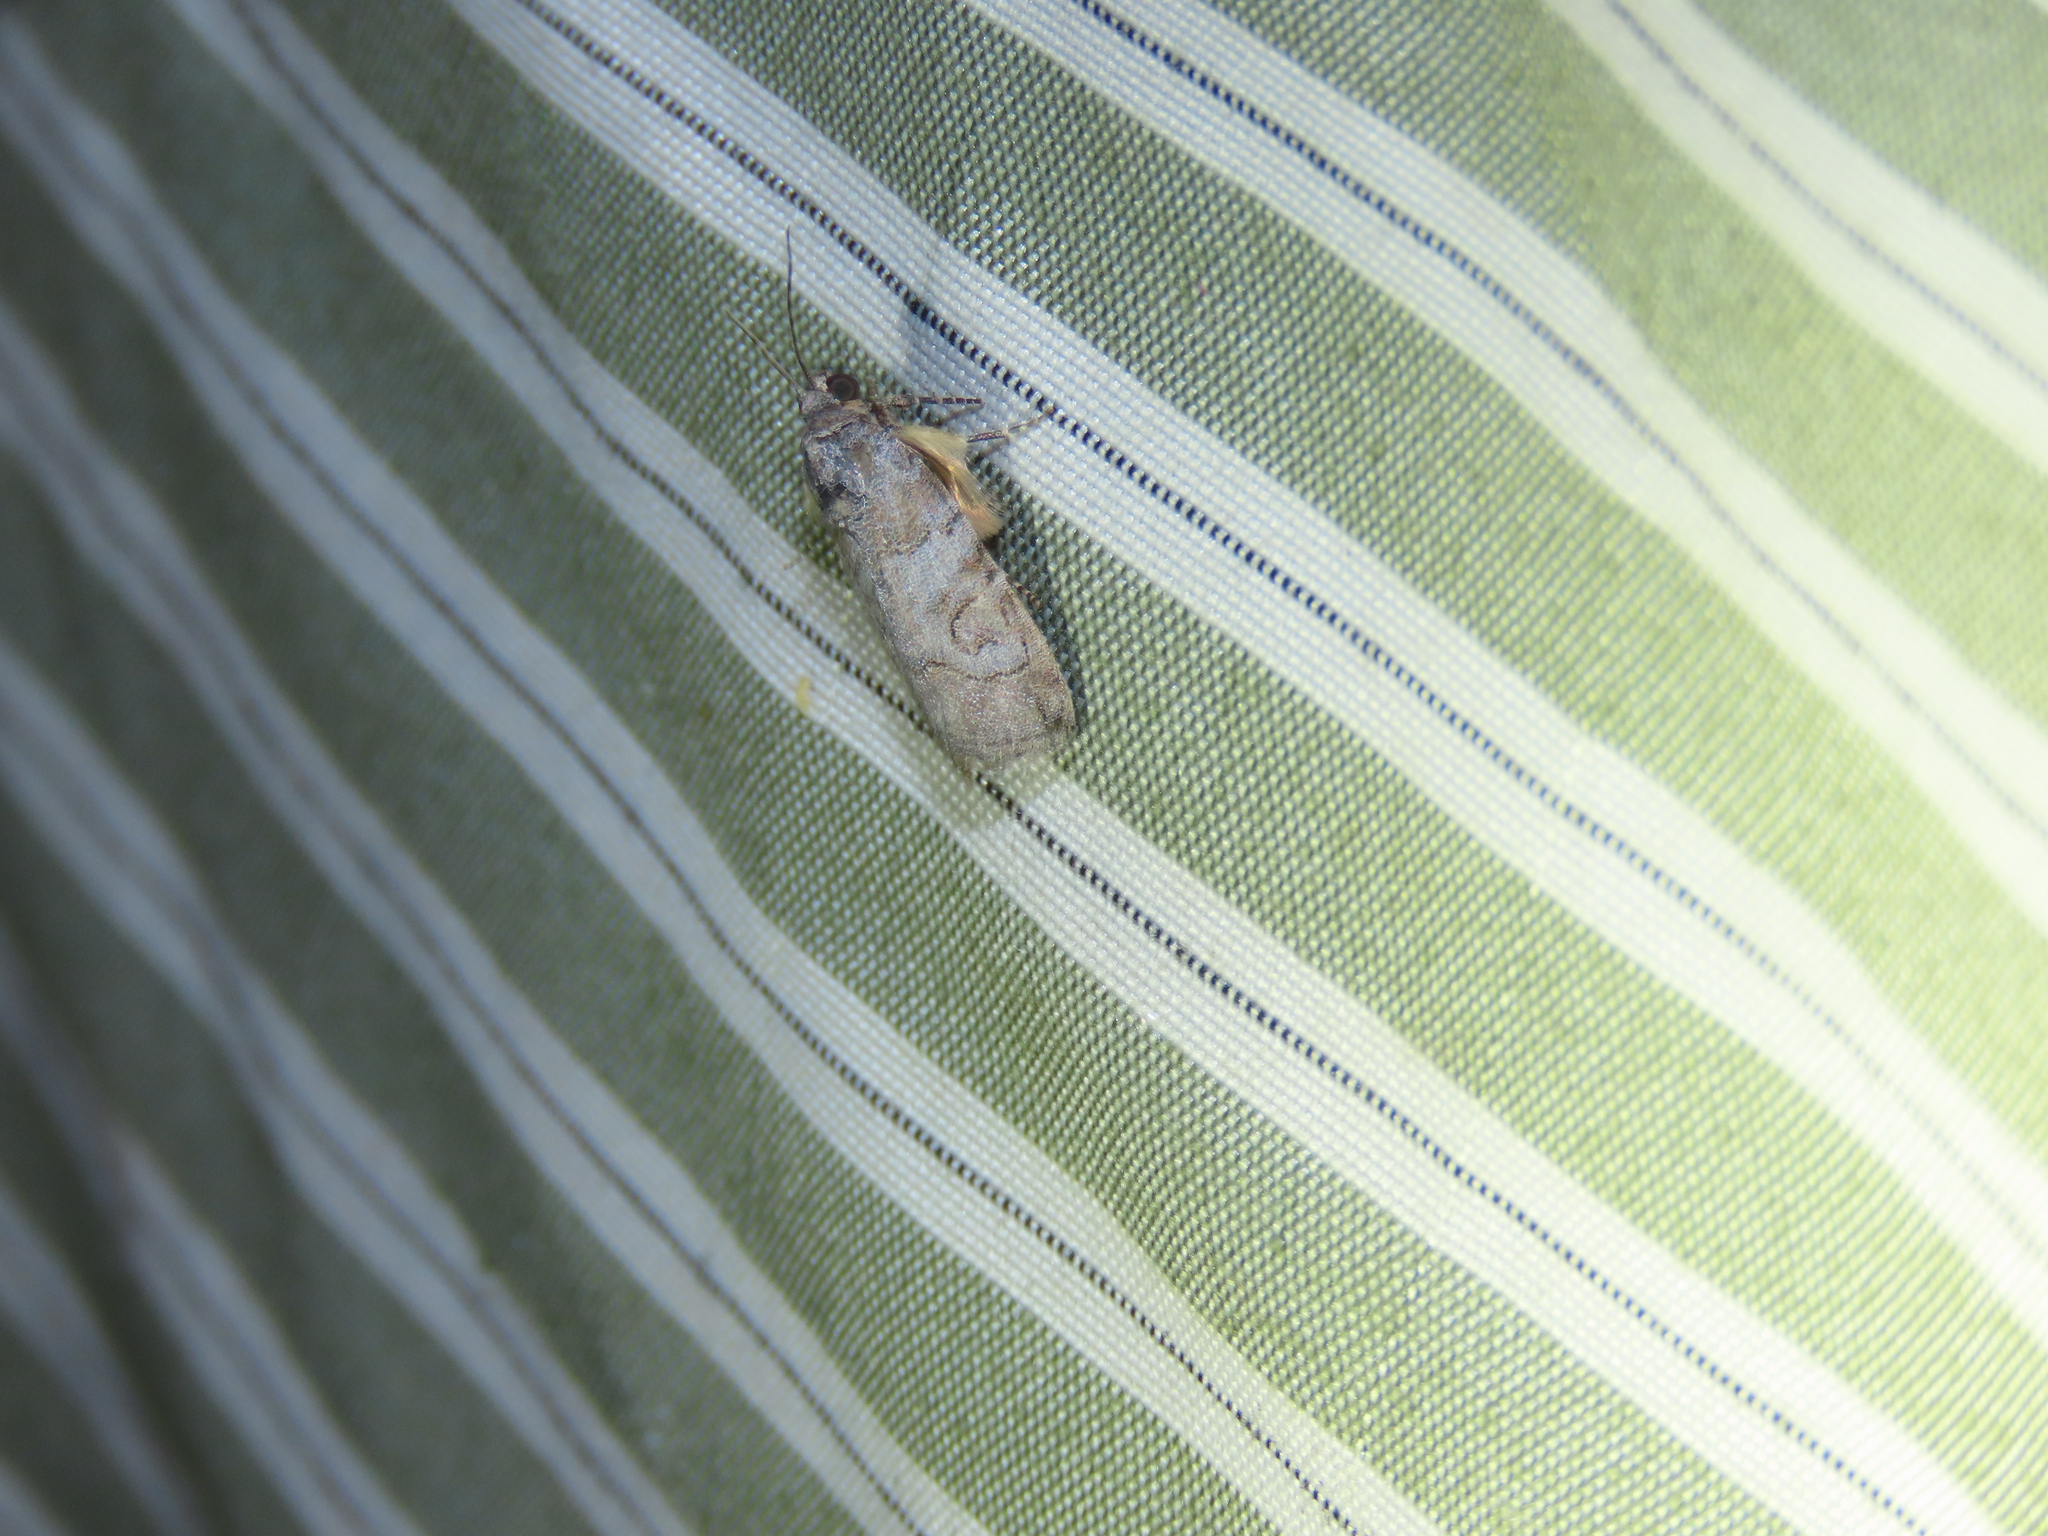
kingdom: Animalia
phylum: Arthropoda
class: Insecta
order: Lepidoptera
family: Noctuidae
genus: Metaponpneumata
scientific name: Metaponpneumata rogenhoferi
